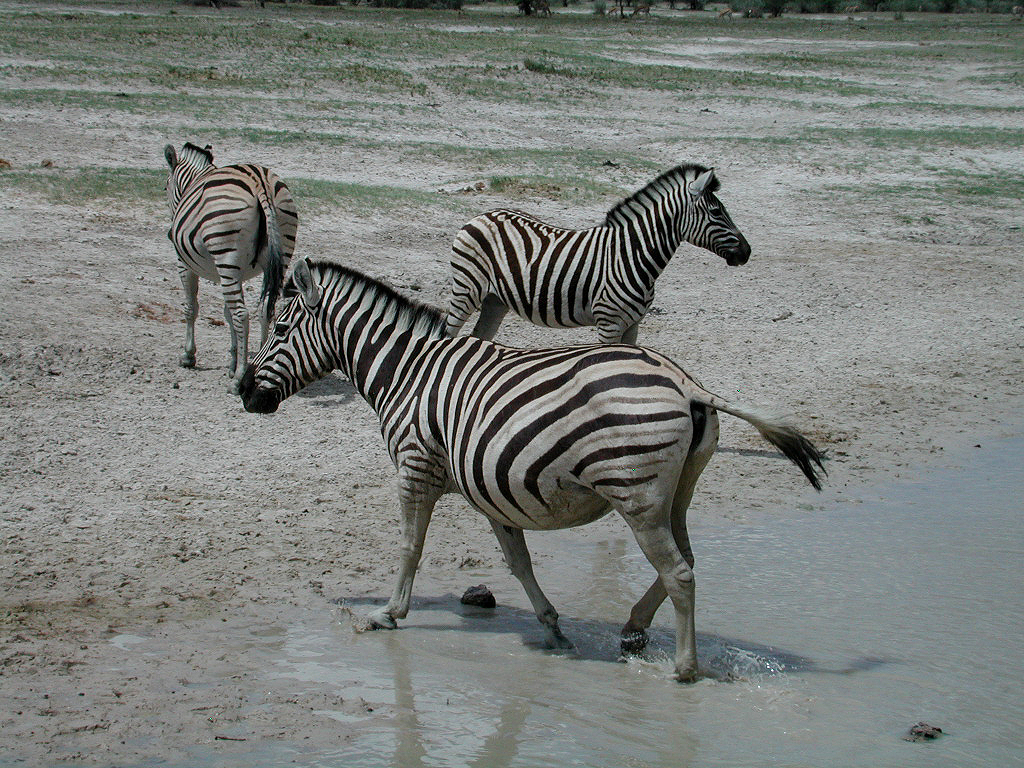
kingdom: Animalia
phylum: Chordata
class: Mammalia
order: Perissodactyla
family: Equidae
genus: Equus
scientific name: Equus quagga
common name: Plains zebra
